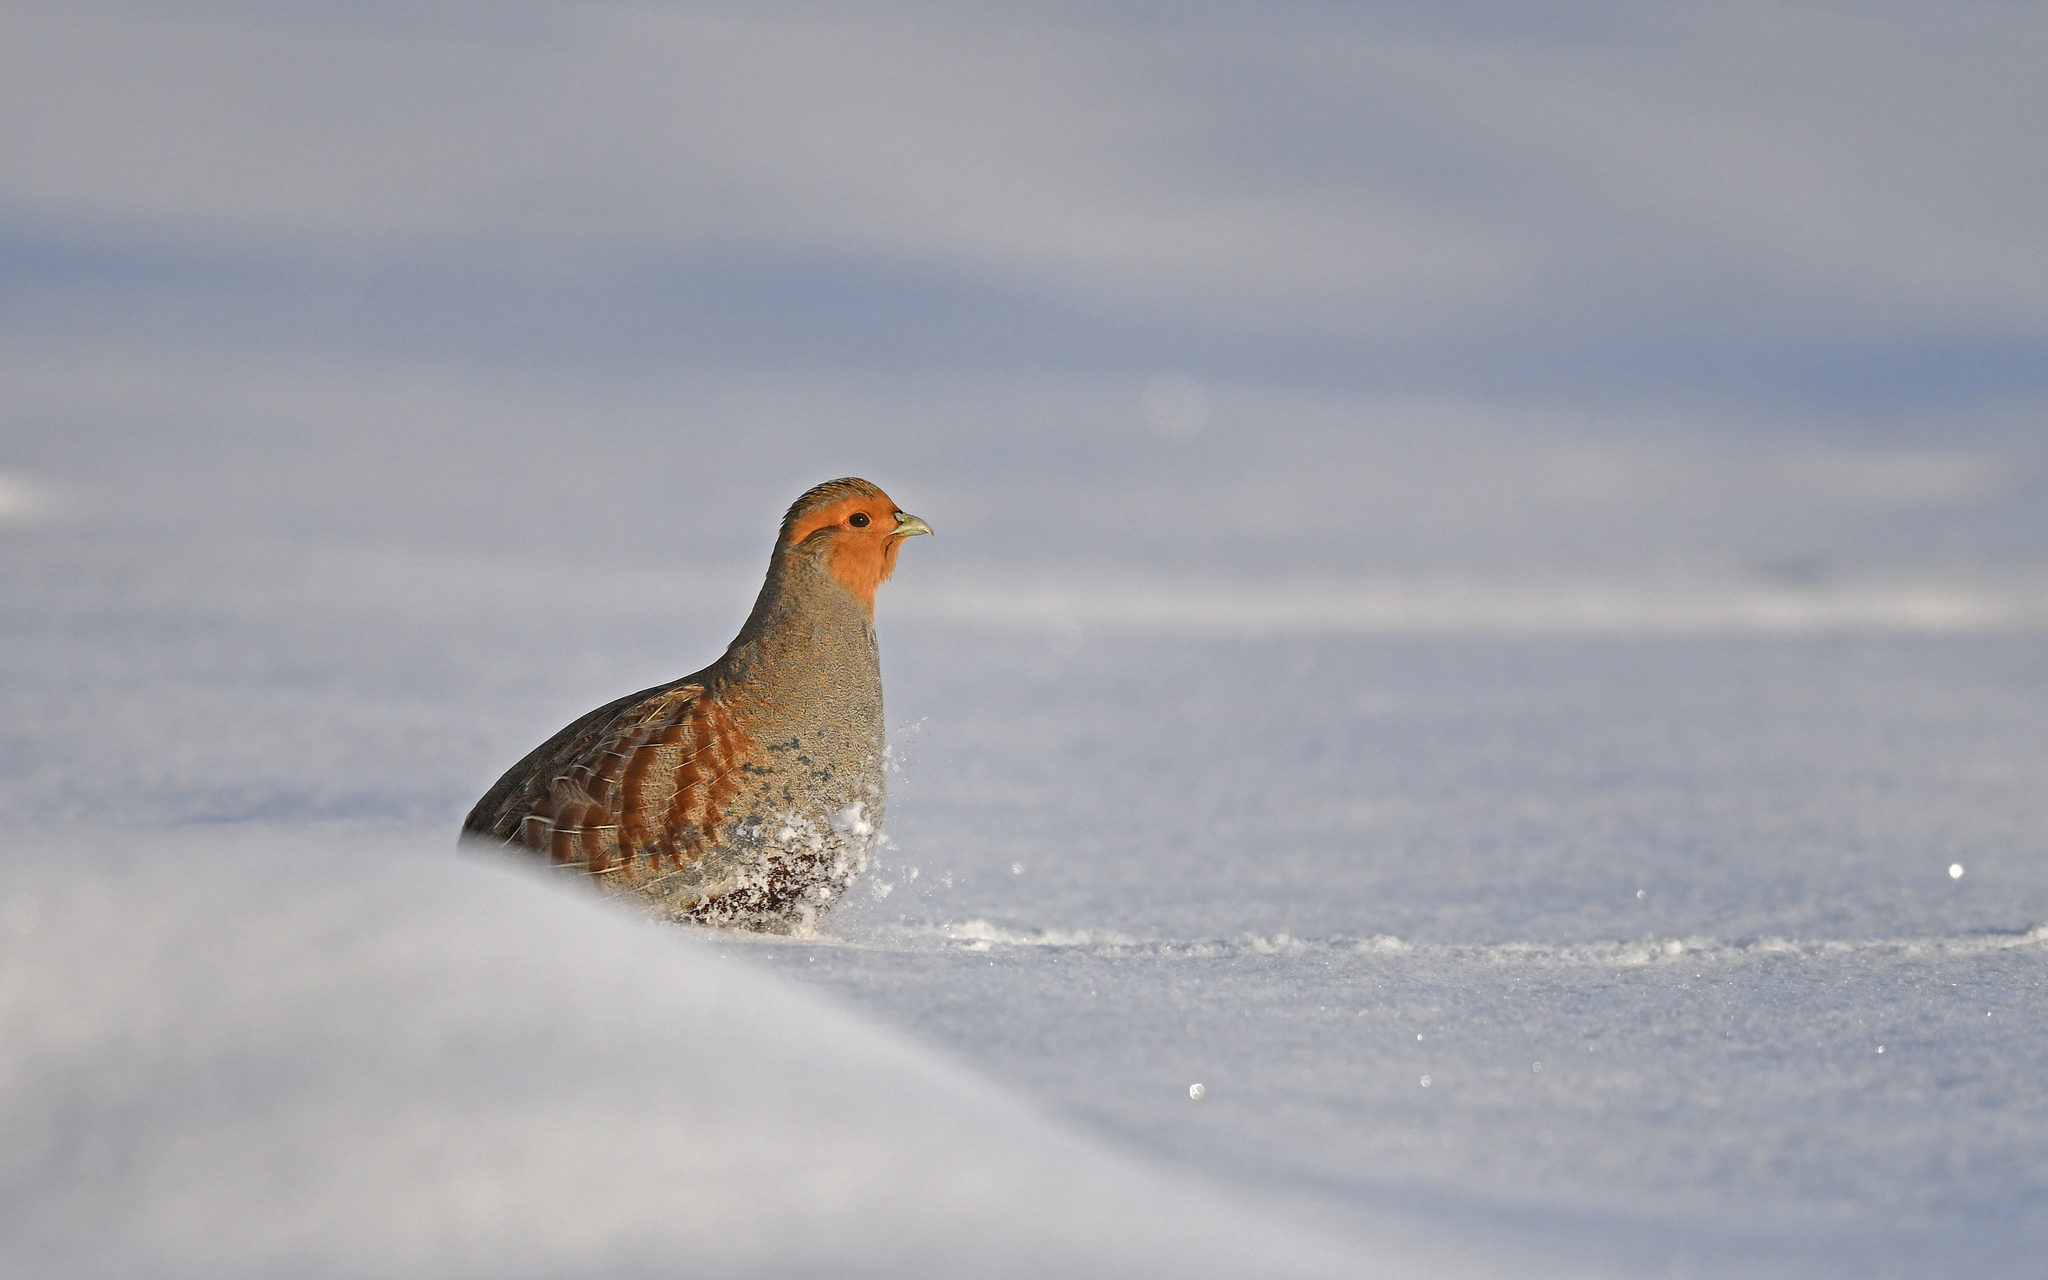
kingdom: Animalia
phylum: Chordata
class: Aves
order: Galliformes
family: Phasianidae
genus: Perdix
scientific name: Perdix perdix
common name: Grey partridge
